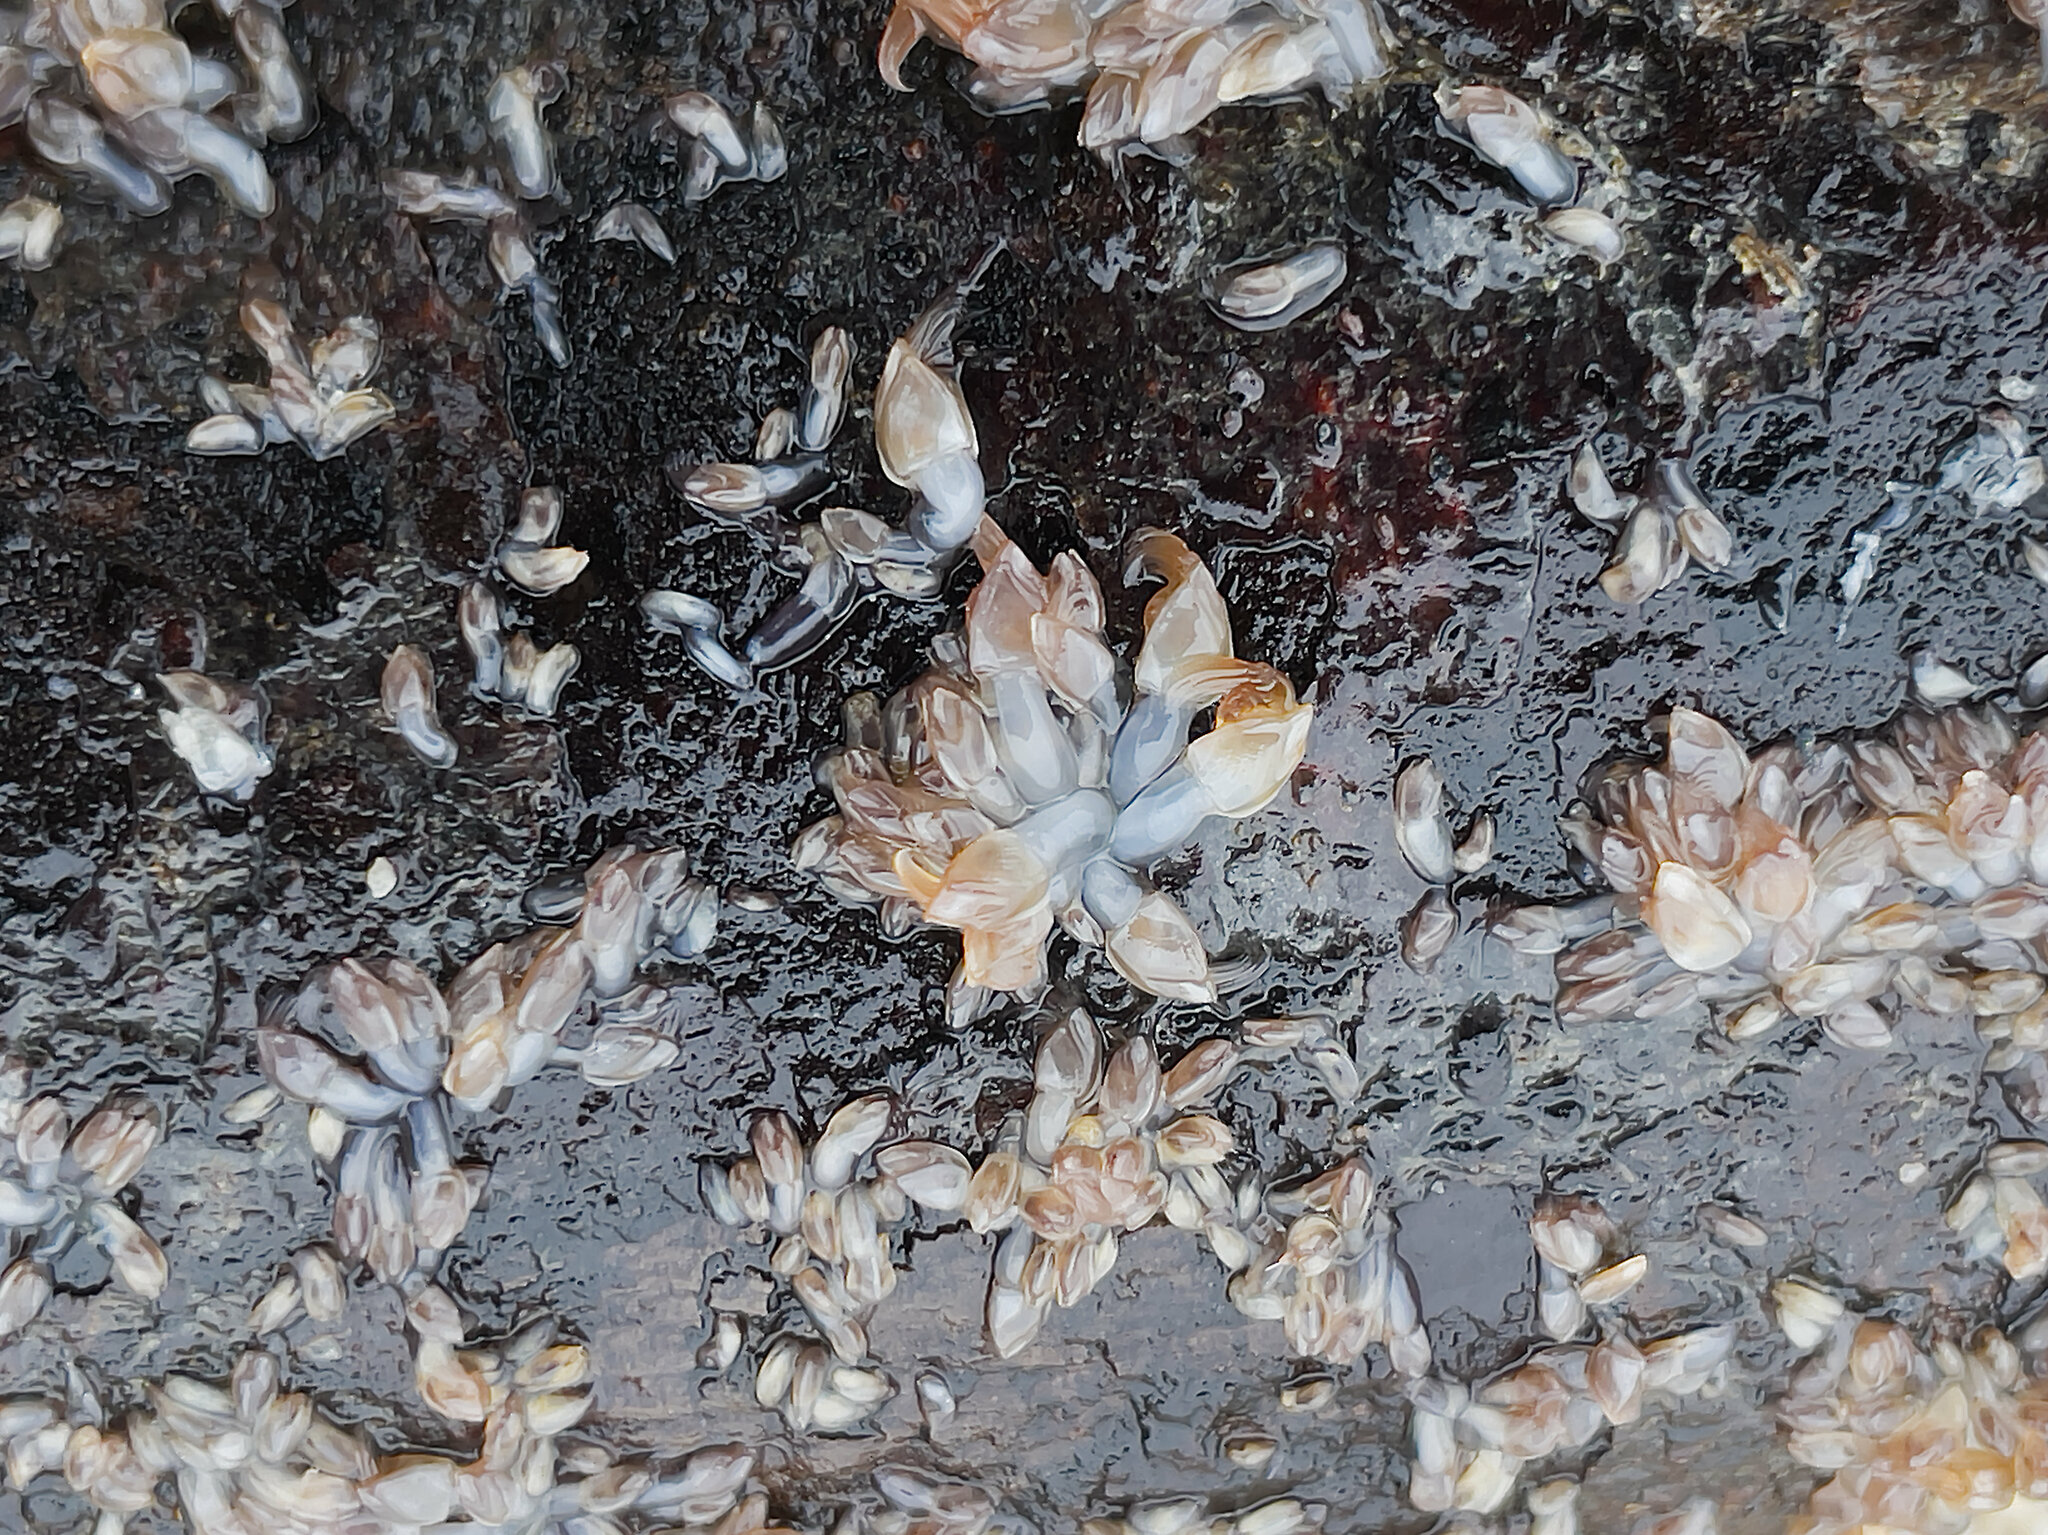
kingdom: Animalia
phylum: Arthropoda
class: Maxillopoda
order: Pedunculata
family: Lepadidae
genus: Lepas
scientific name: Lepas pacifica
